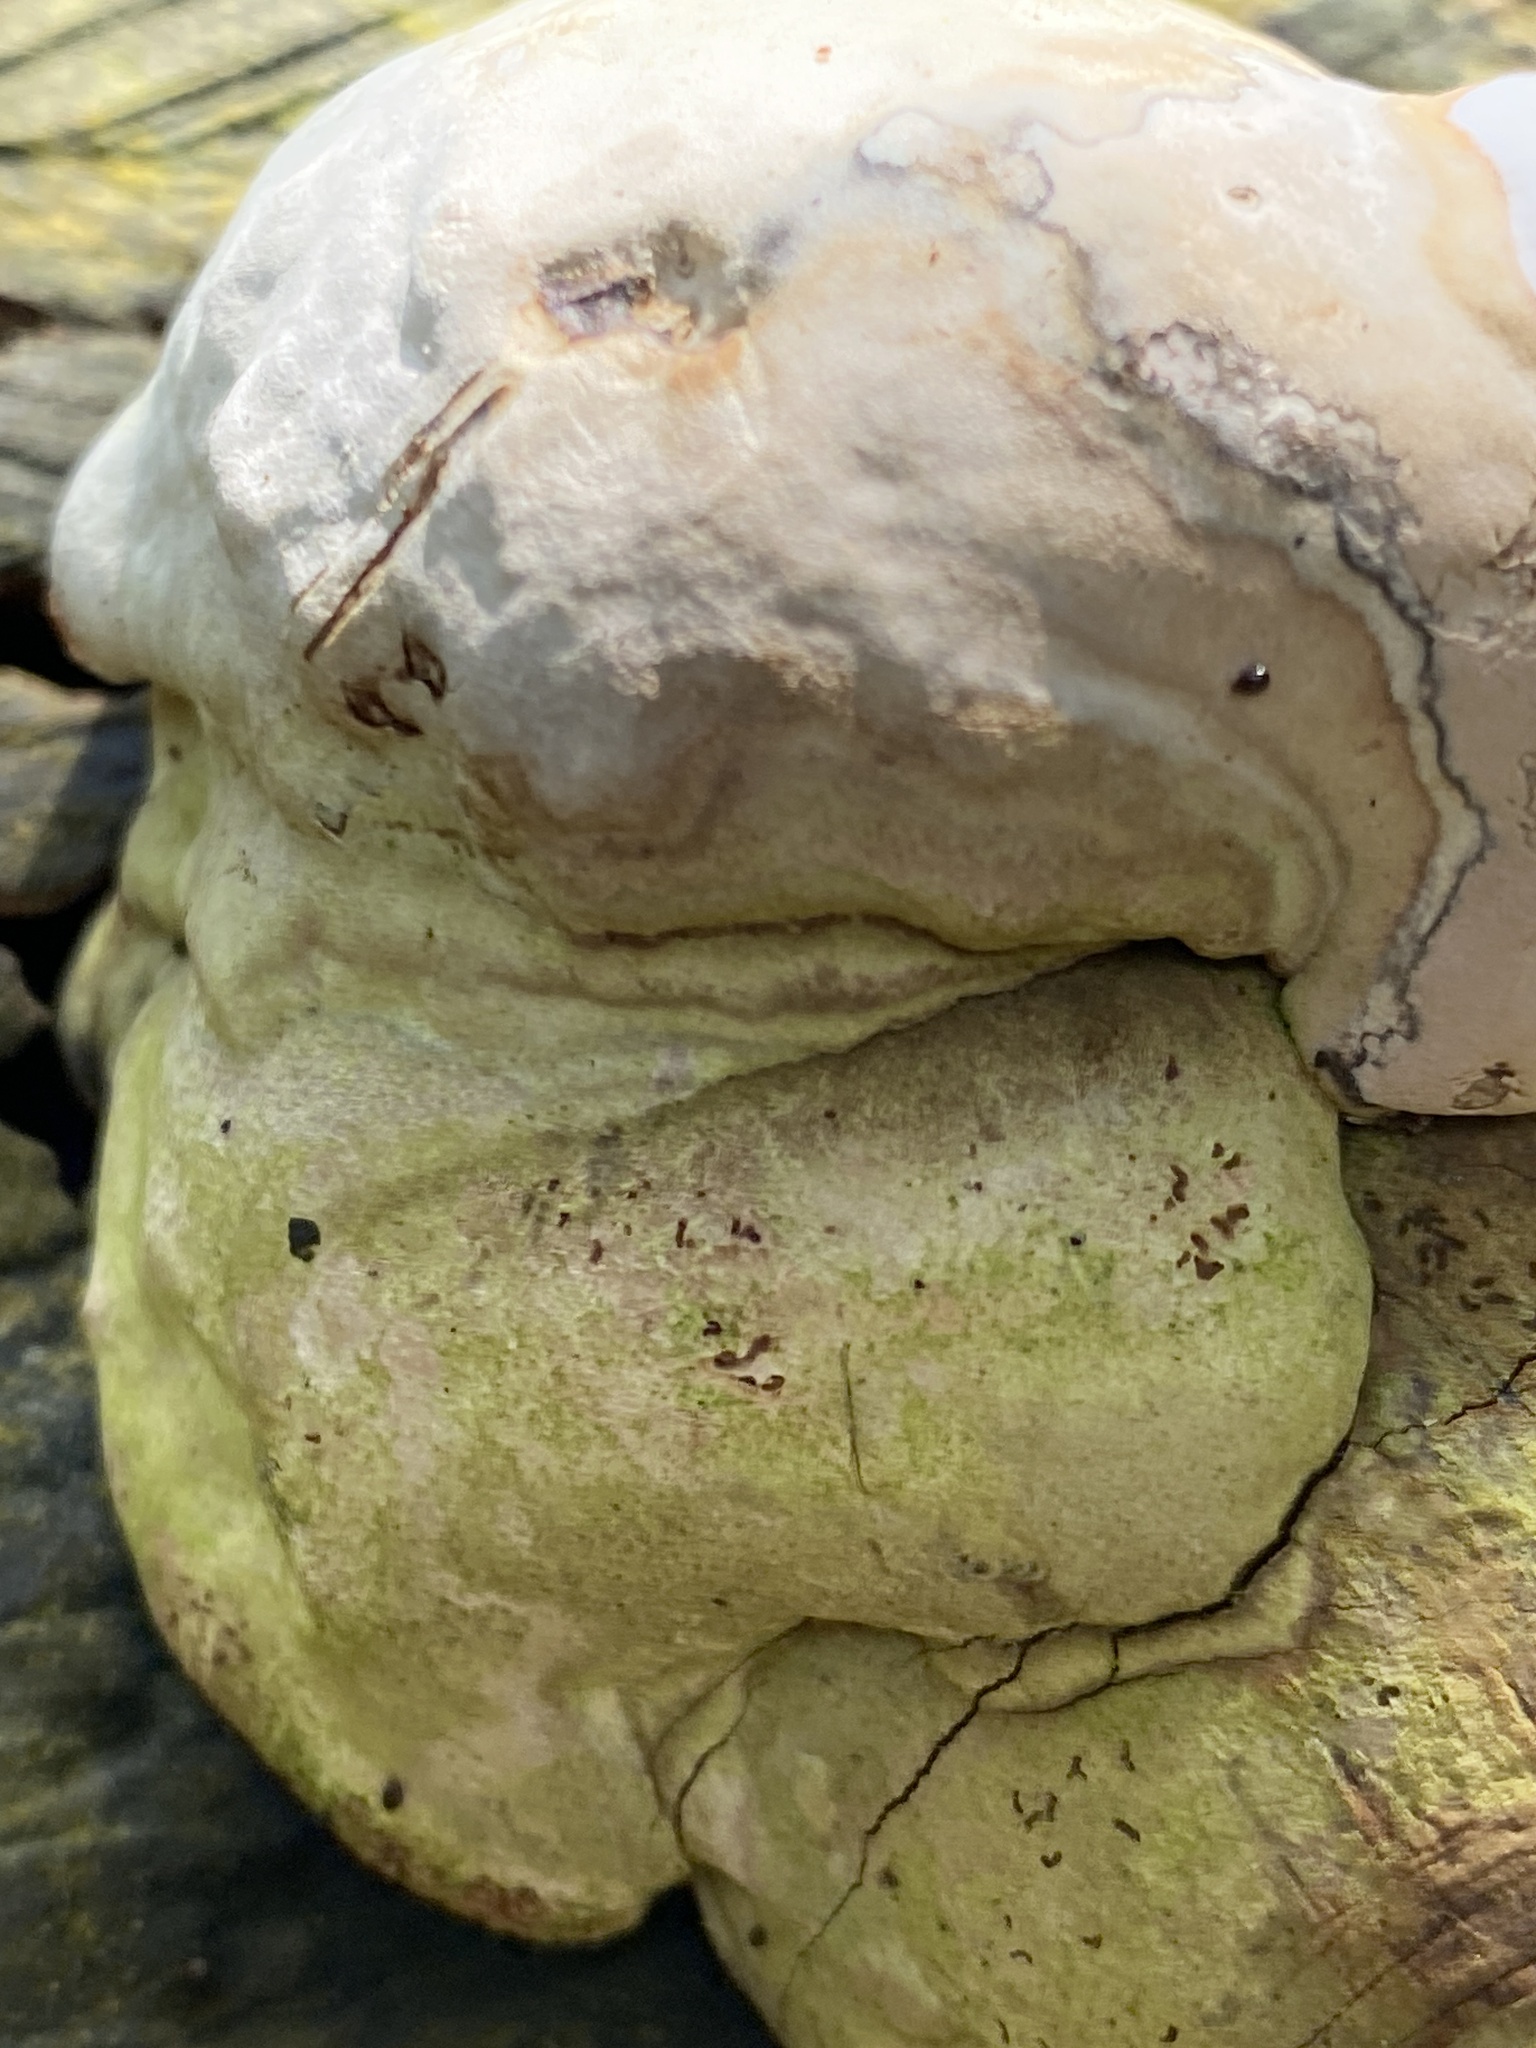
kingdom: Fungi
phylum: Basidiomycota
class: Agaricomycetes
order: Polyporales
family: Polyporaceae
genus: Fomes
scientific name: Fomes fomentarius
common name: Hoof fungus
